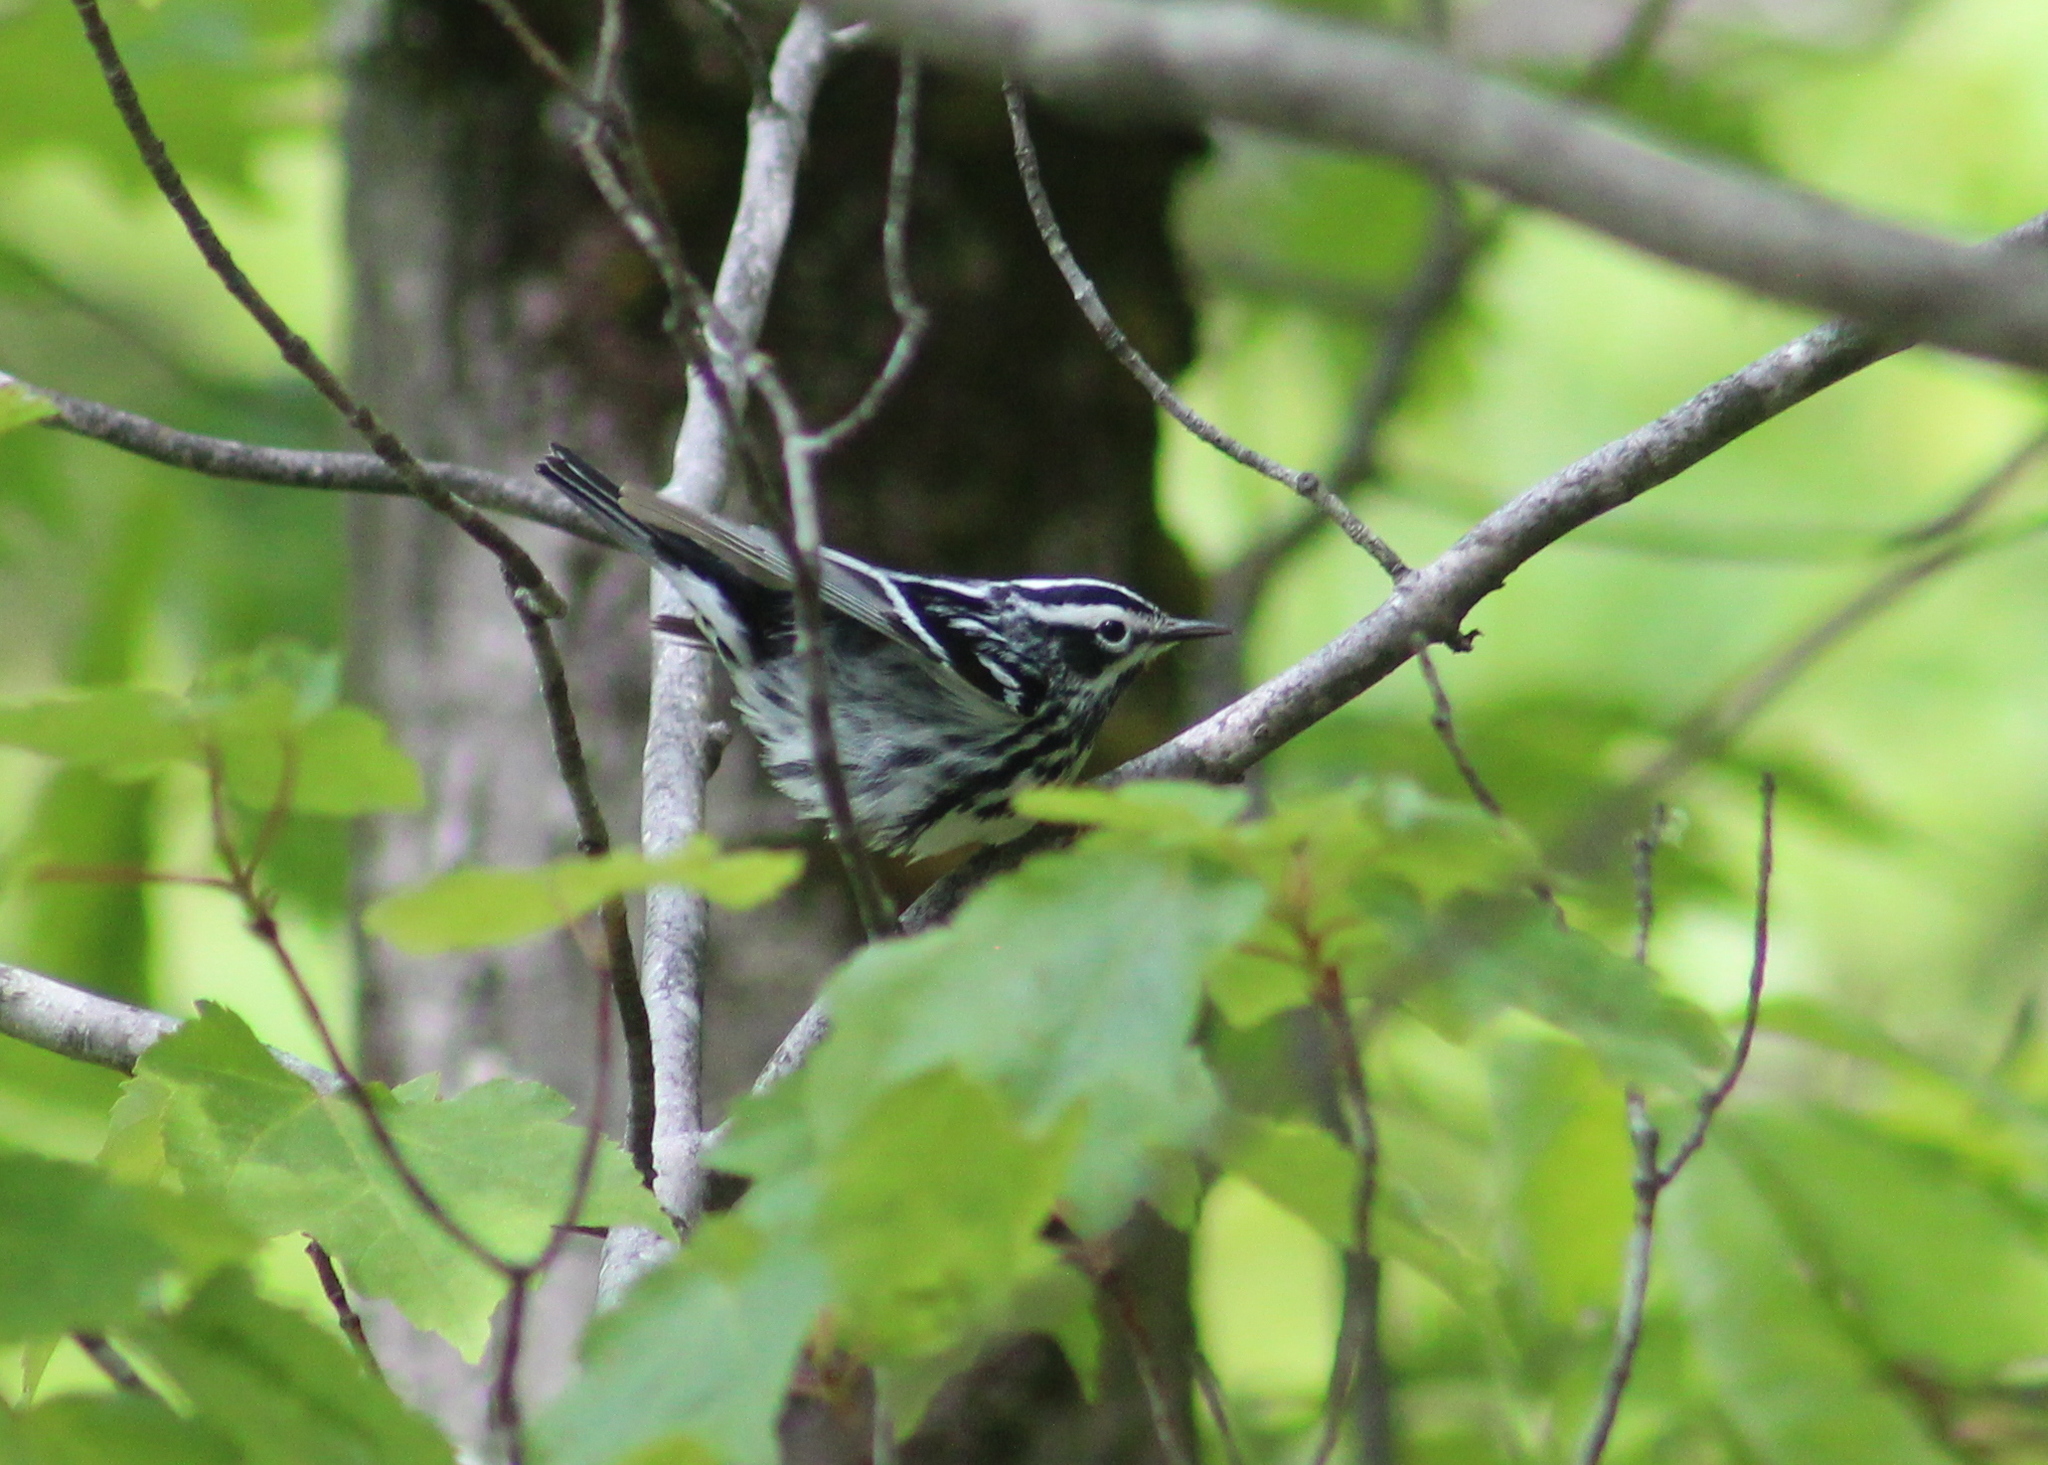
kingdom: Animalia
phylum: Chordata
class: Aves
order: Passeriformes
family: Parulidae
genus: Mniotilta
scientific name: Mniotilta varia
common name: Black-and-white warbler
